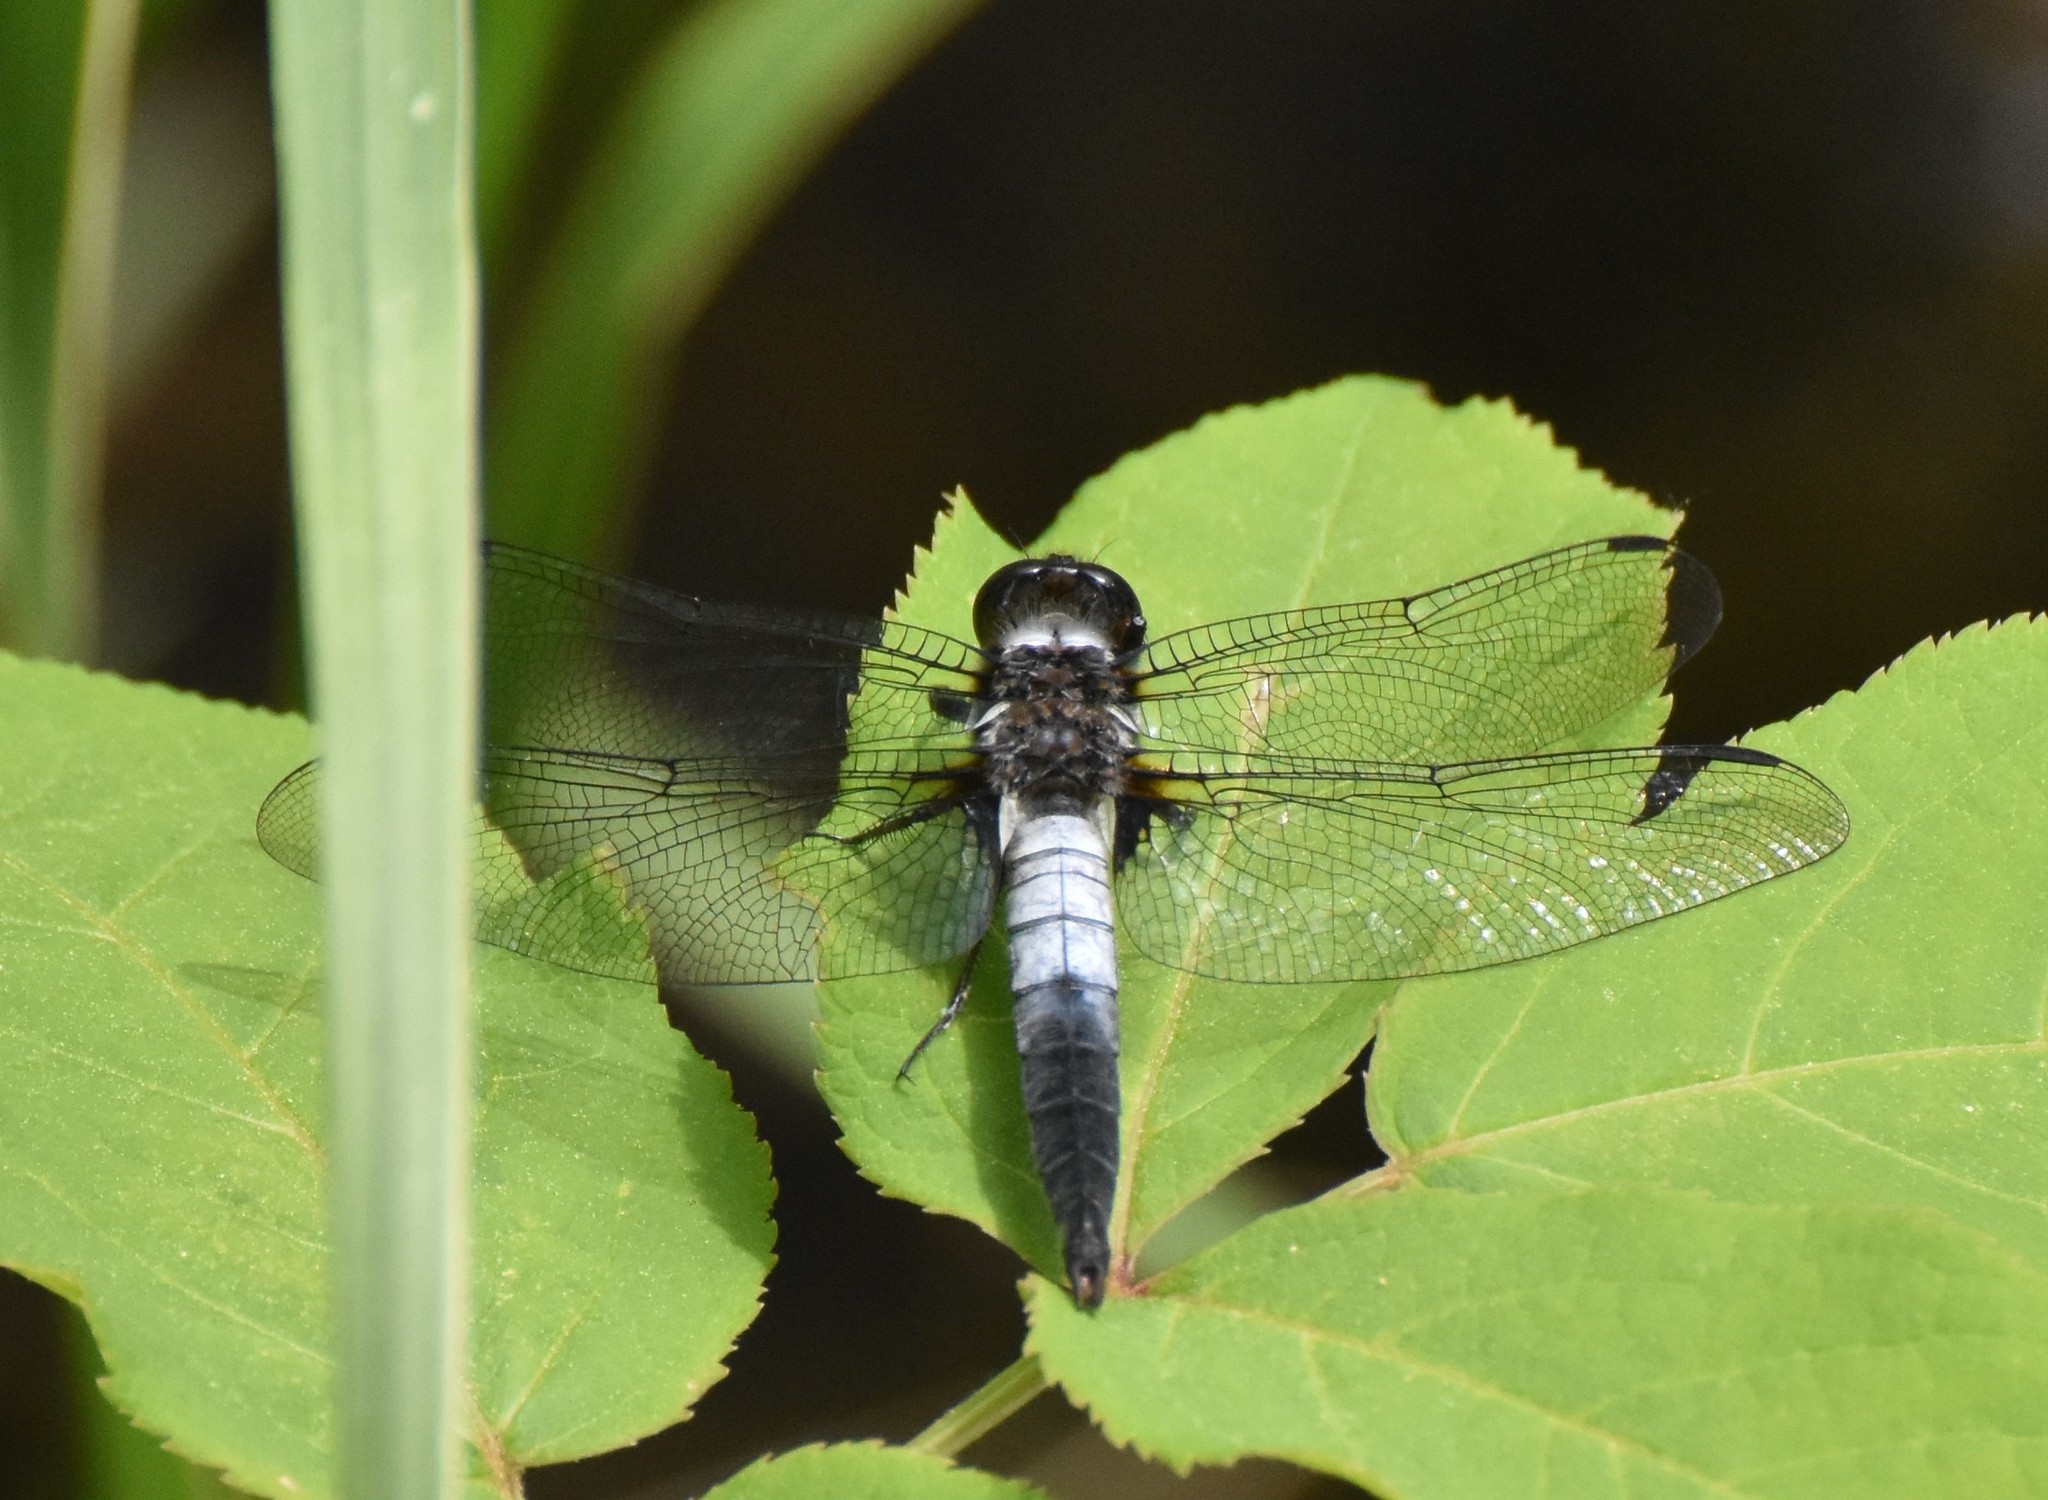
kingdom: Animalia
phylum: Arthropoda
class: Insecta
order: Odonata
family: Libellulidae
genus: Ladona
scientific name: Ladona julia
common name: Chalk-fronted corporal
